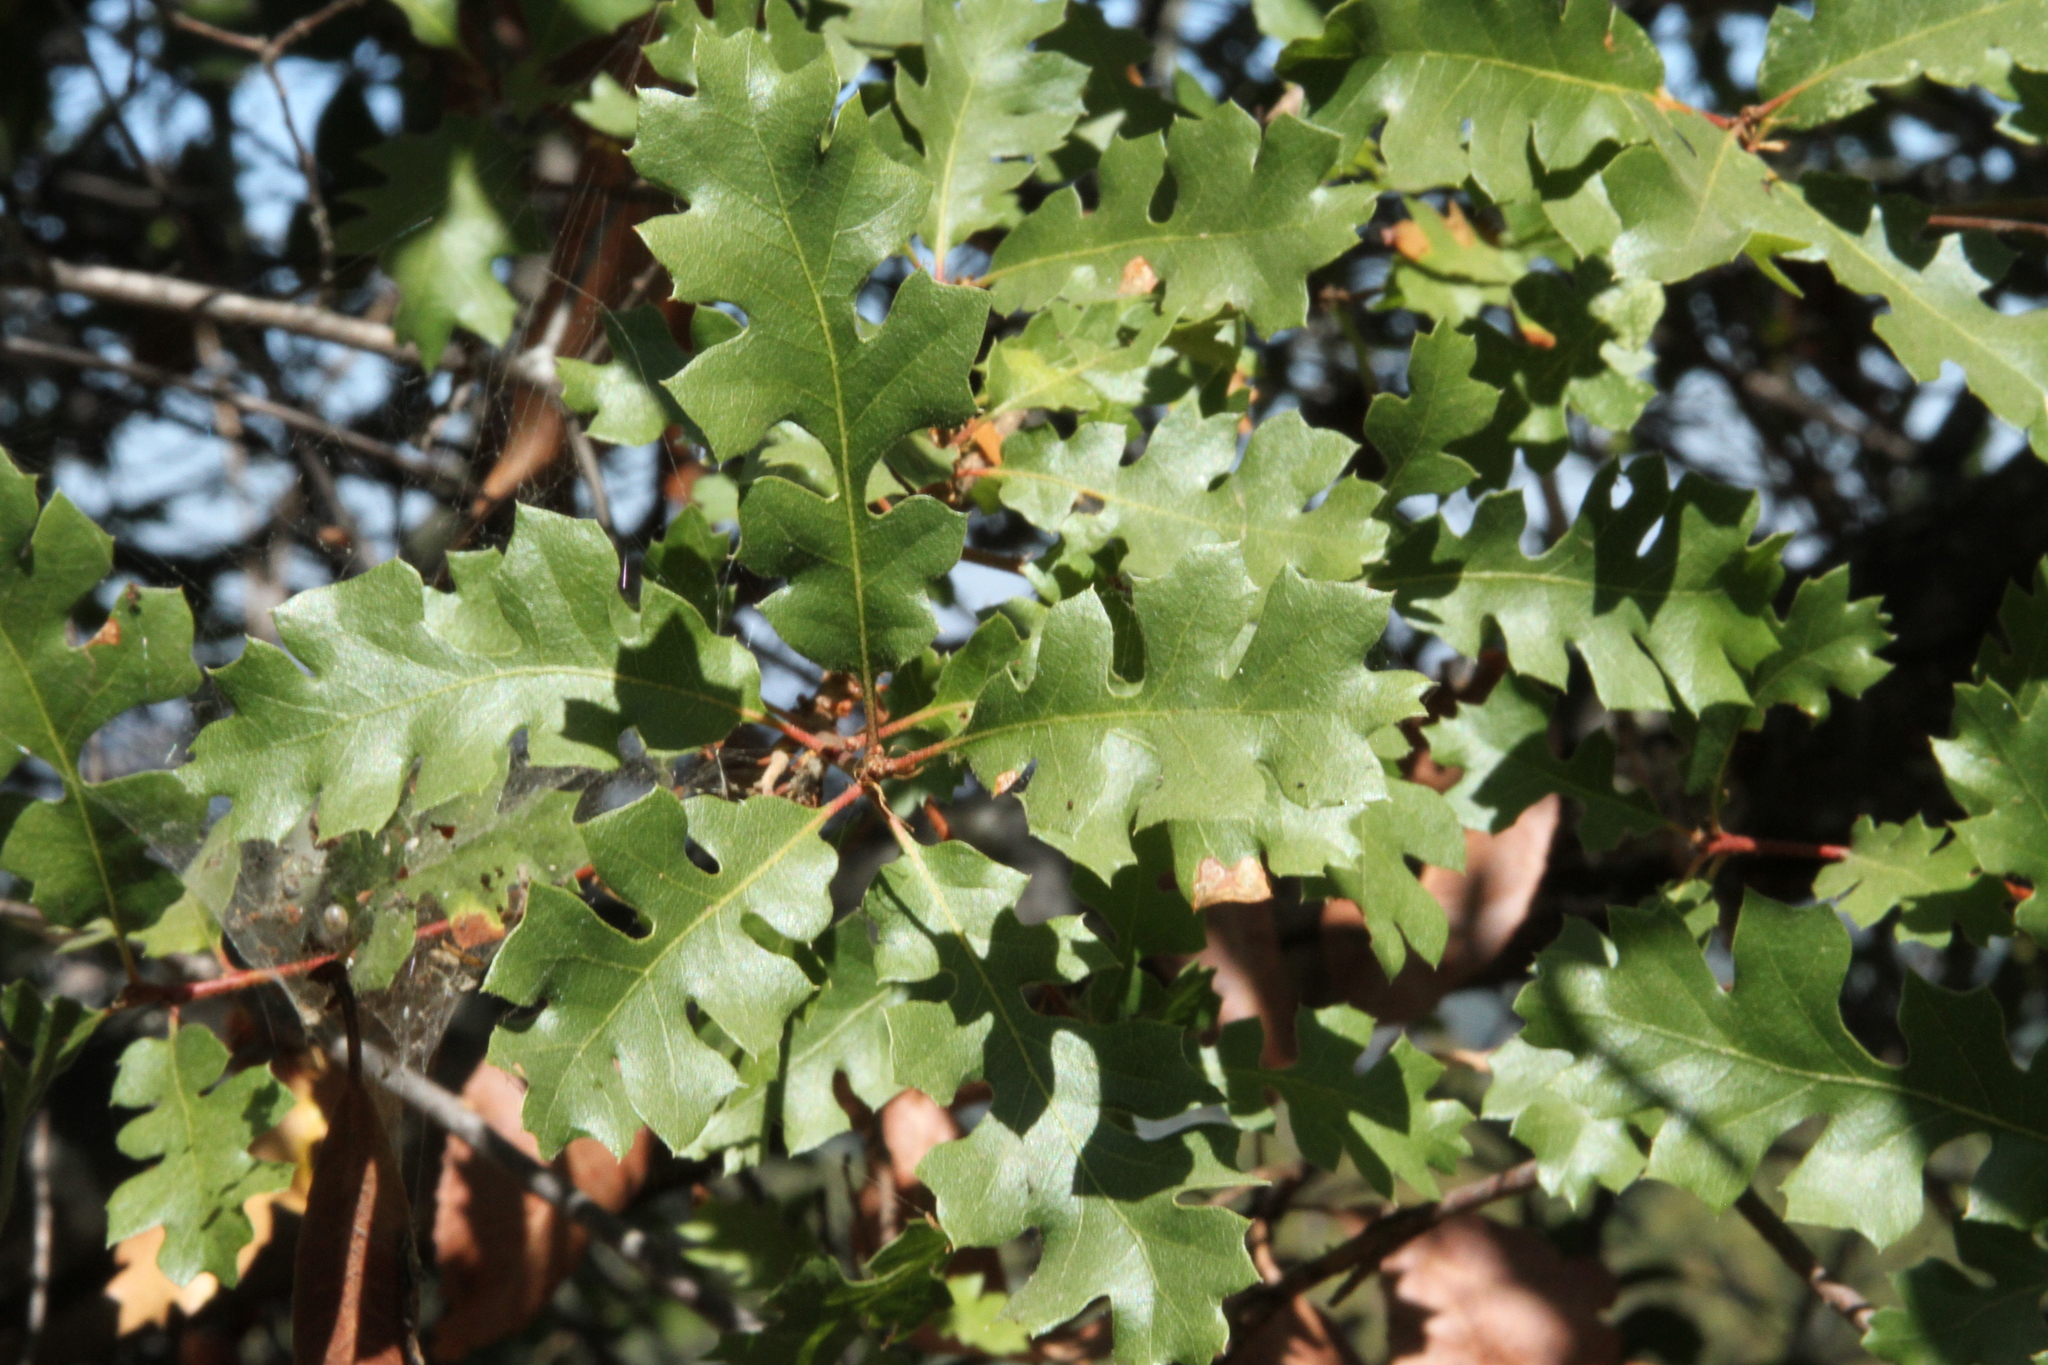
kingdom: Plantae
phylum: Tracheophyta
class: Magnoliopsida
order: Fagales
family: Fagaceae
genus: Quercus
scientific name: Quercus kelloggii
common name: California black oak
